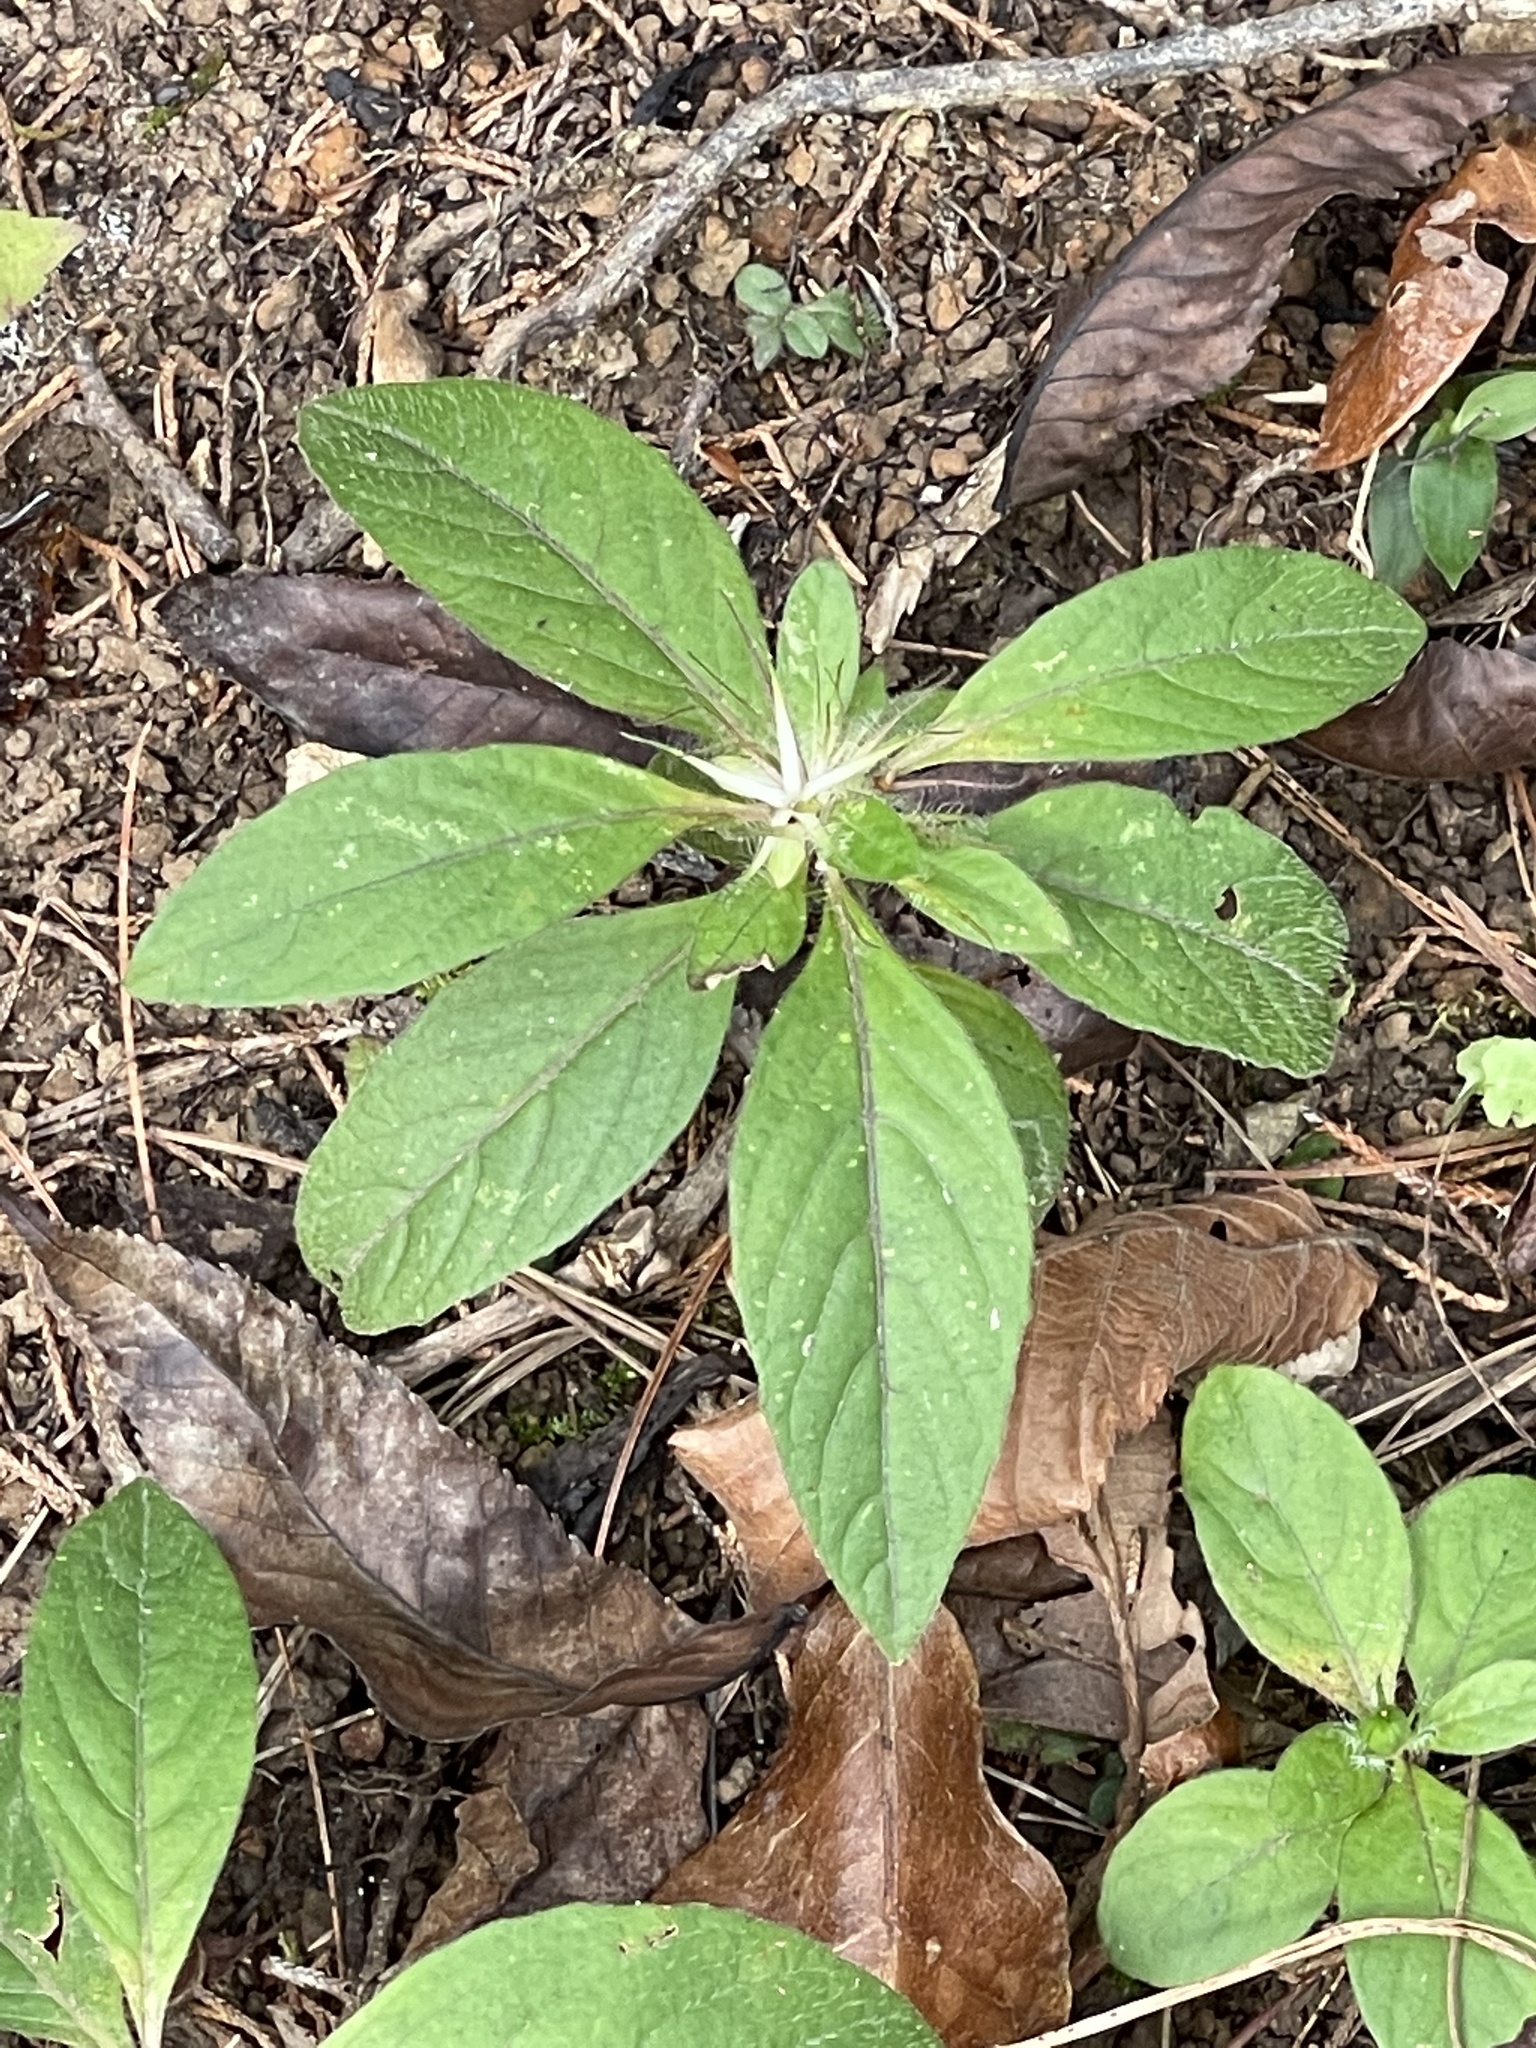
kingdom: Plantae
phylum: Tracheophyta
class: Magnoliopsida
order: Lamiales
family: Acanthaceae
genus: Ruellia
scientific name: Ruellia caroliniensis
